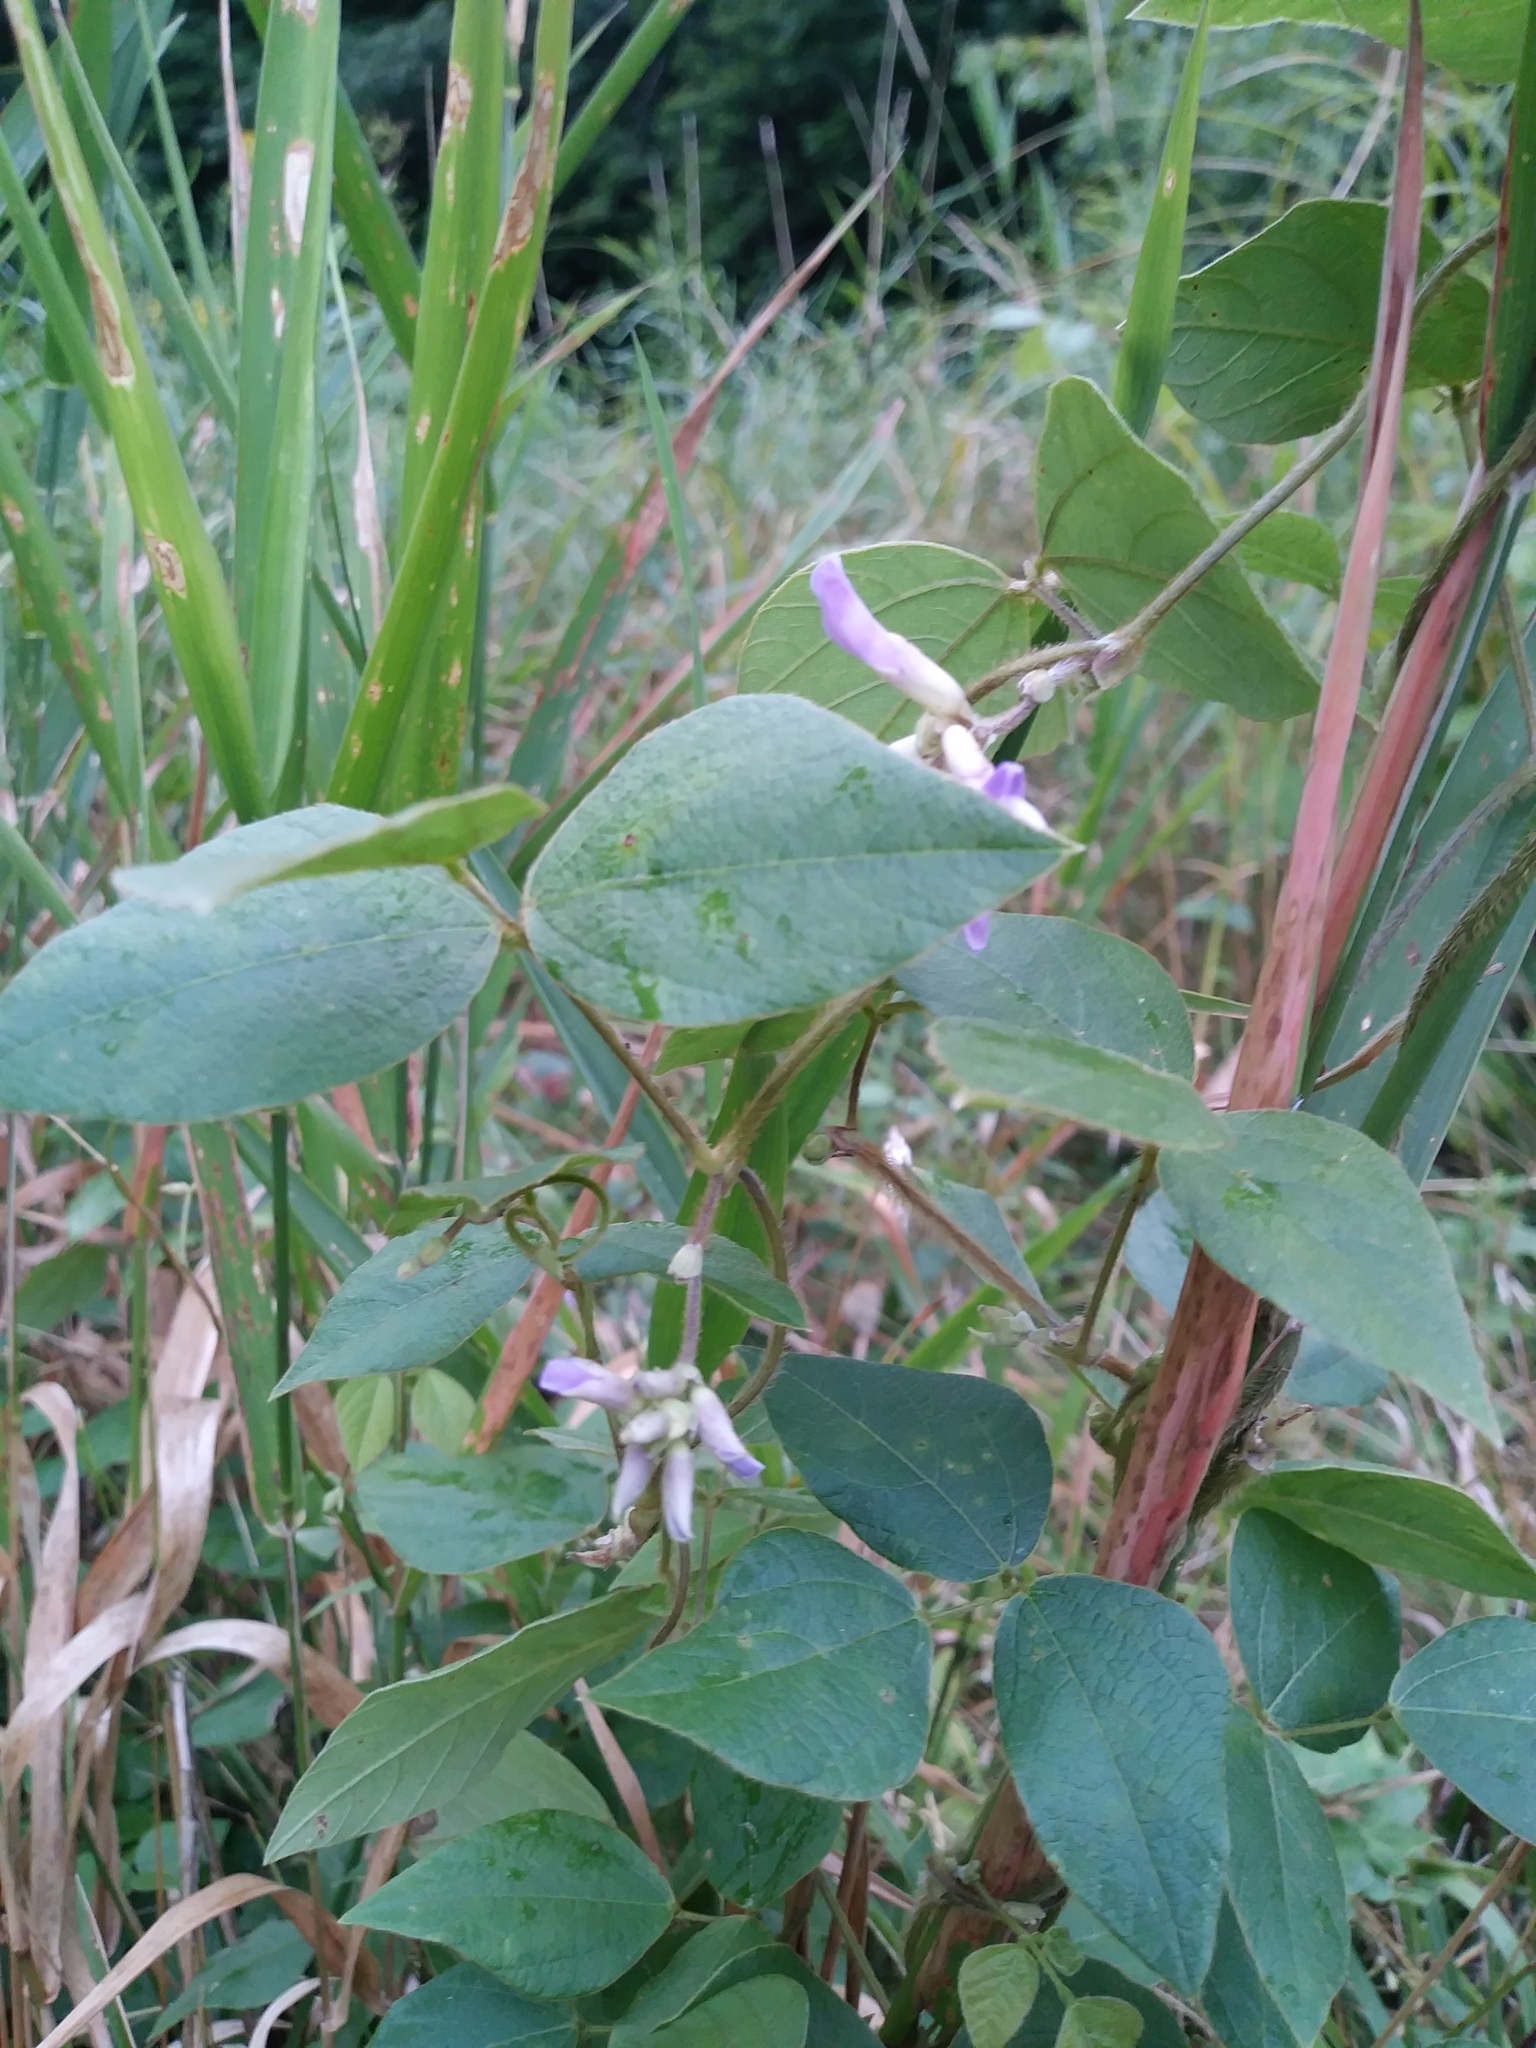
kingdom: Plantae
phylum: Tracheophyta
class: Magnoliopsida
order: Fabales
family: Fabaceae
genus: Amphicarpaea
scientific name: Amphicarpaea bracteata
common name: American hog peanut
